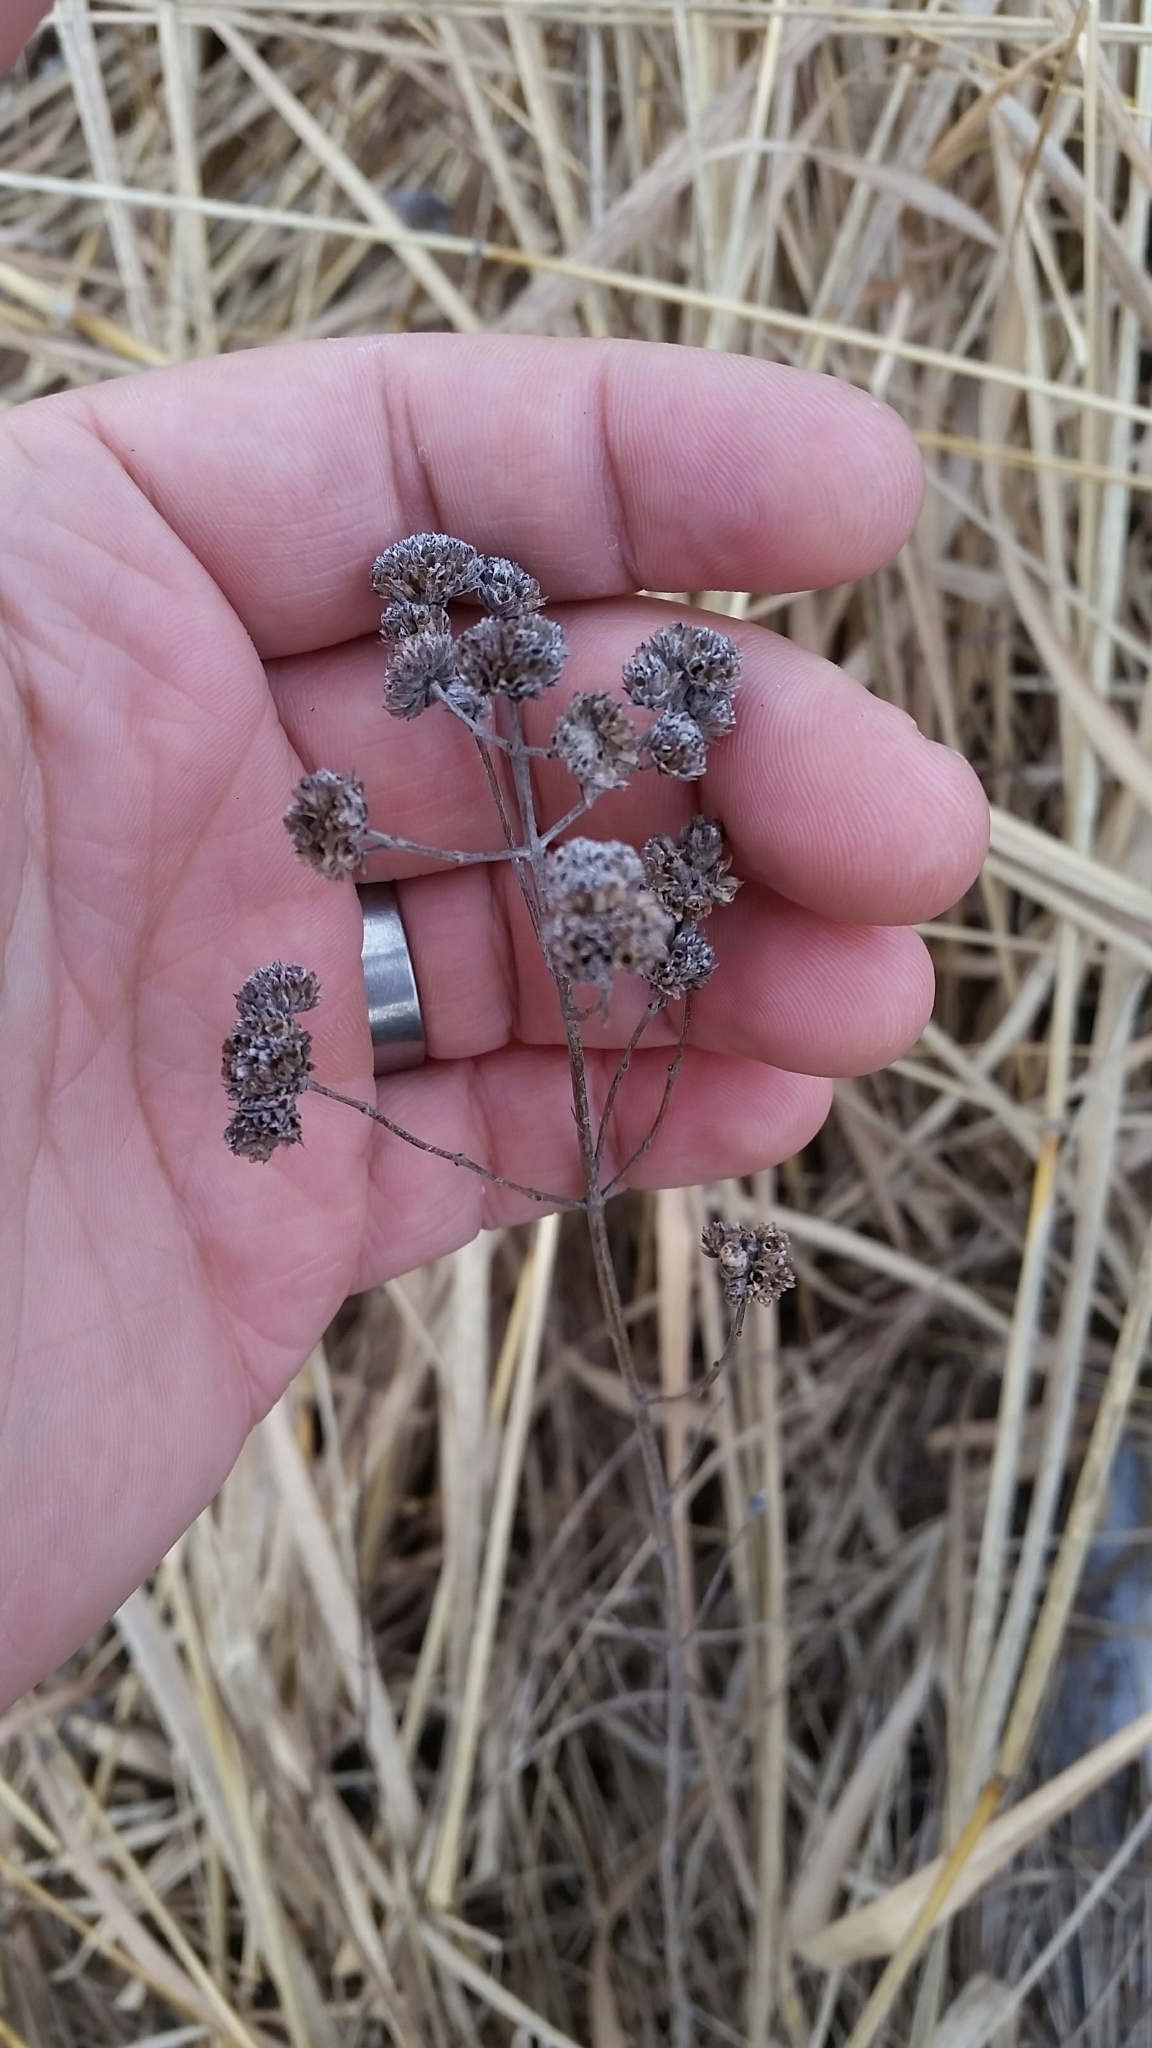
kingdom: Plantae
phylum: Tracheophyta
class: Magnoliopsida
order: Lamiales
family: Lamiaceae
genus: Pycnanthemum
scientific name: Pycnanthemum virginianum
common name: Virginia mountain-mint
